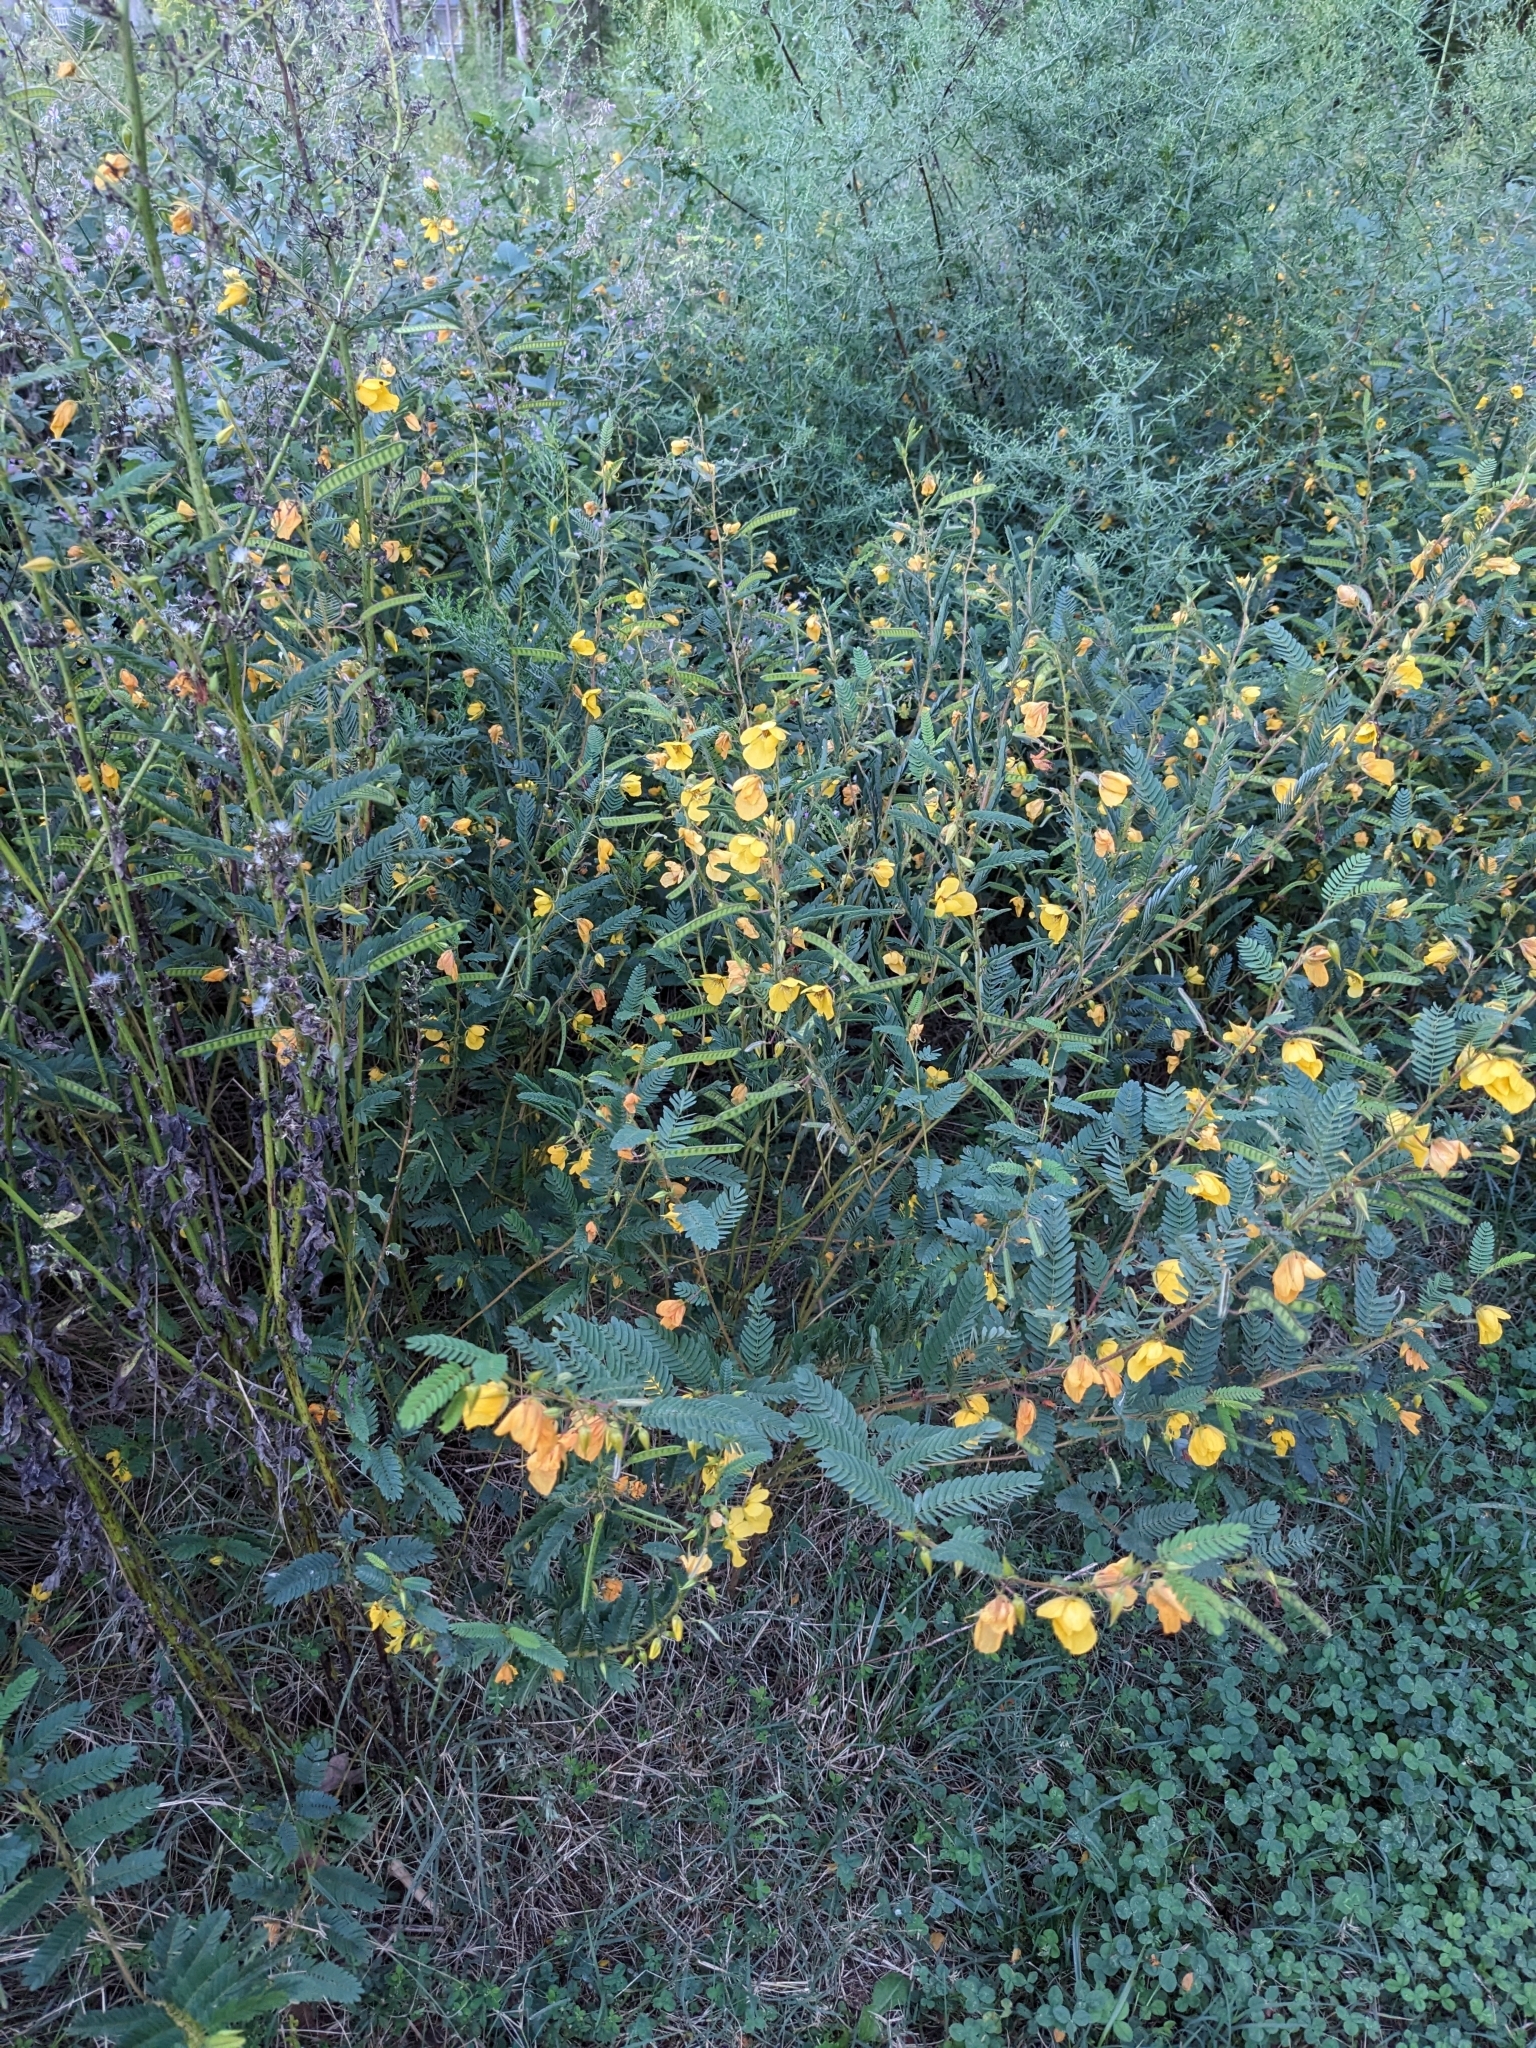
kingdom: Plantae
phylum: Tracheophyta
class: Magnoliopsida
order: Fabales
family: Fabaceae
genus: Chamaecrista
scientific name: Chamaecrista fasciculata
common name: Golden cassia
